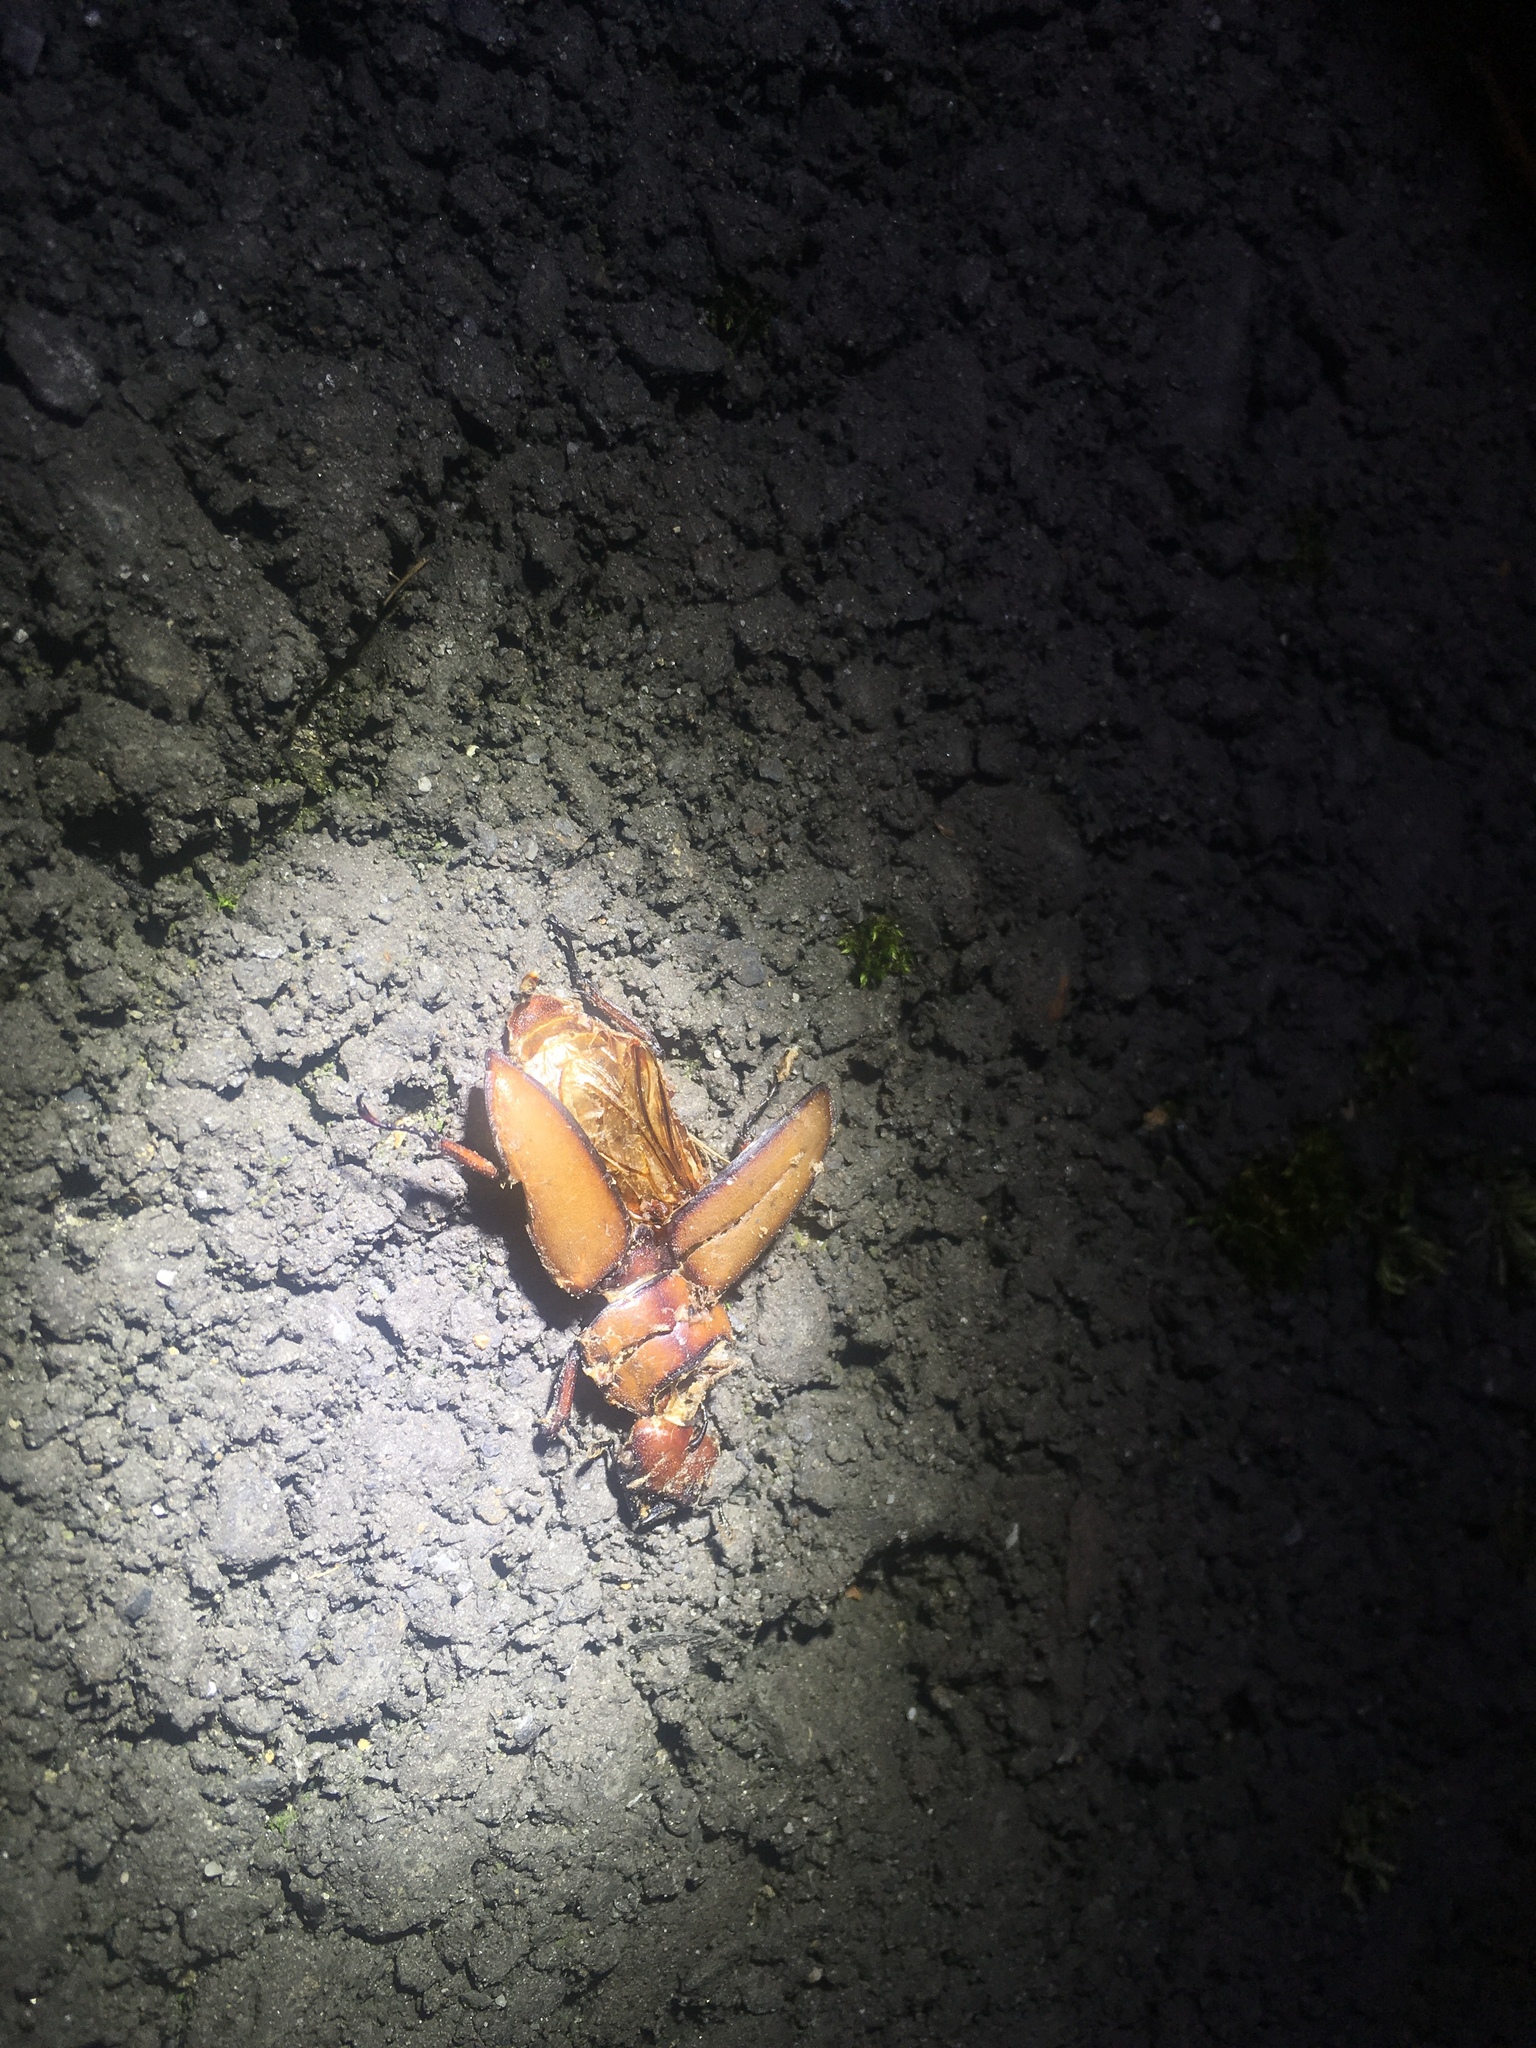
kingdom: Animalia
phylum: Arthropoda
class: Insecta
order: Coleoptera
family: Lucanidae
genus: Prosopocoilus
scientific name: Prosopocoilus astacoides
